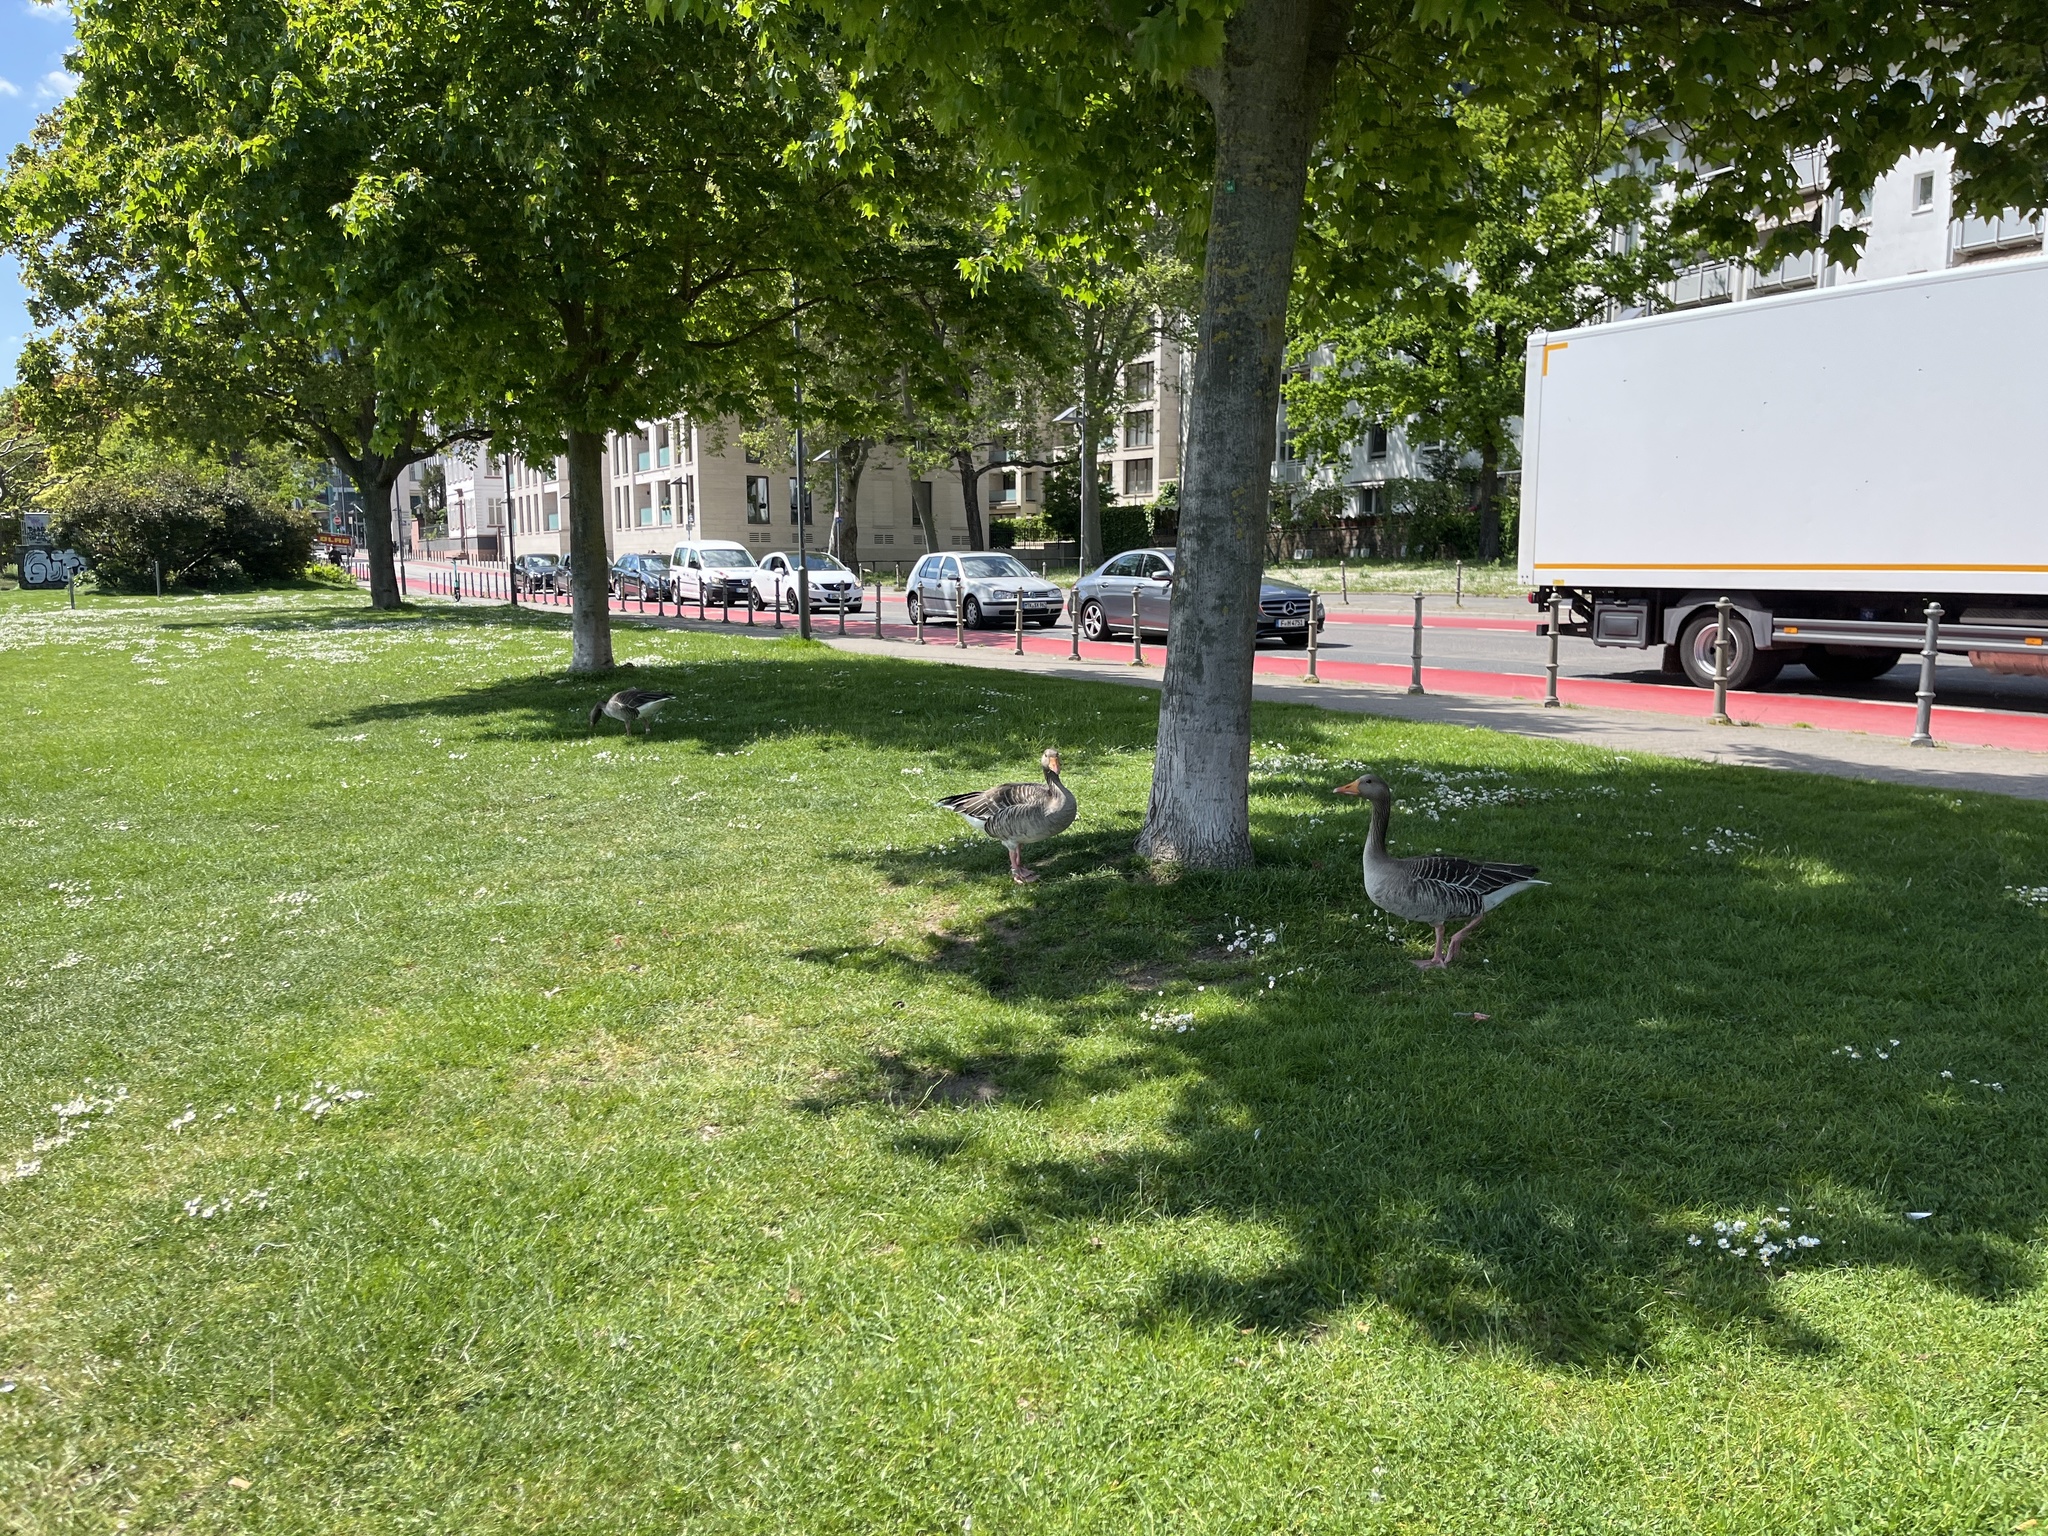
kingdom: Animalia
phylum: Chordata
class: Aves
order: Anseriformes
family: Anatidae
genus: Anser
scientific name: Anser anser
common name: Greylag goose
